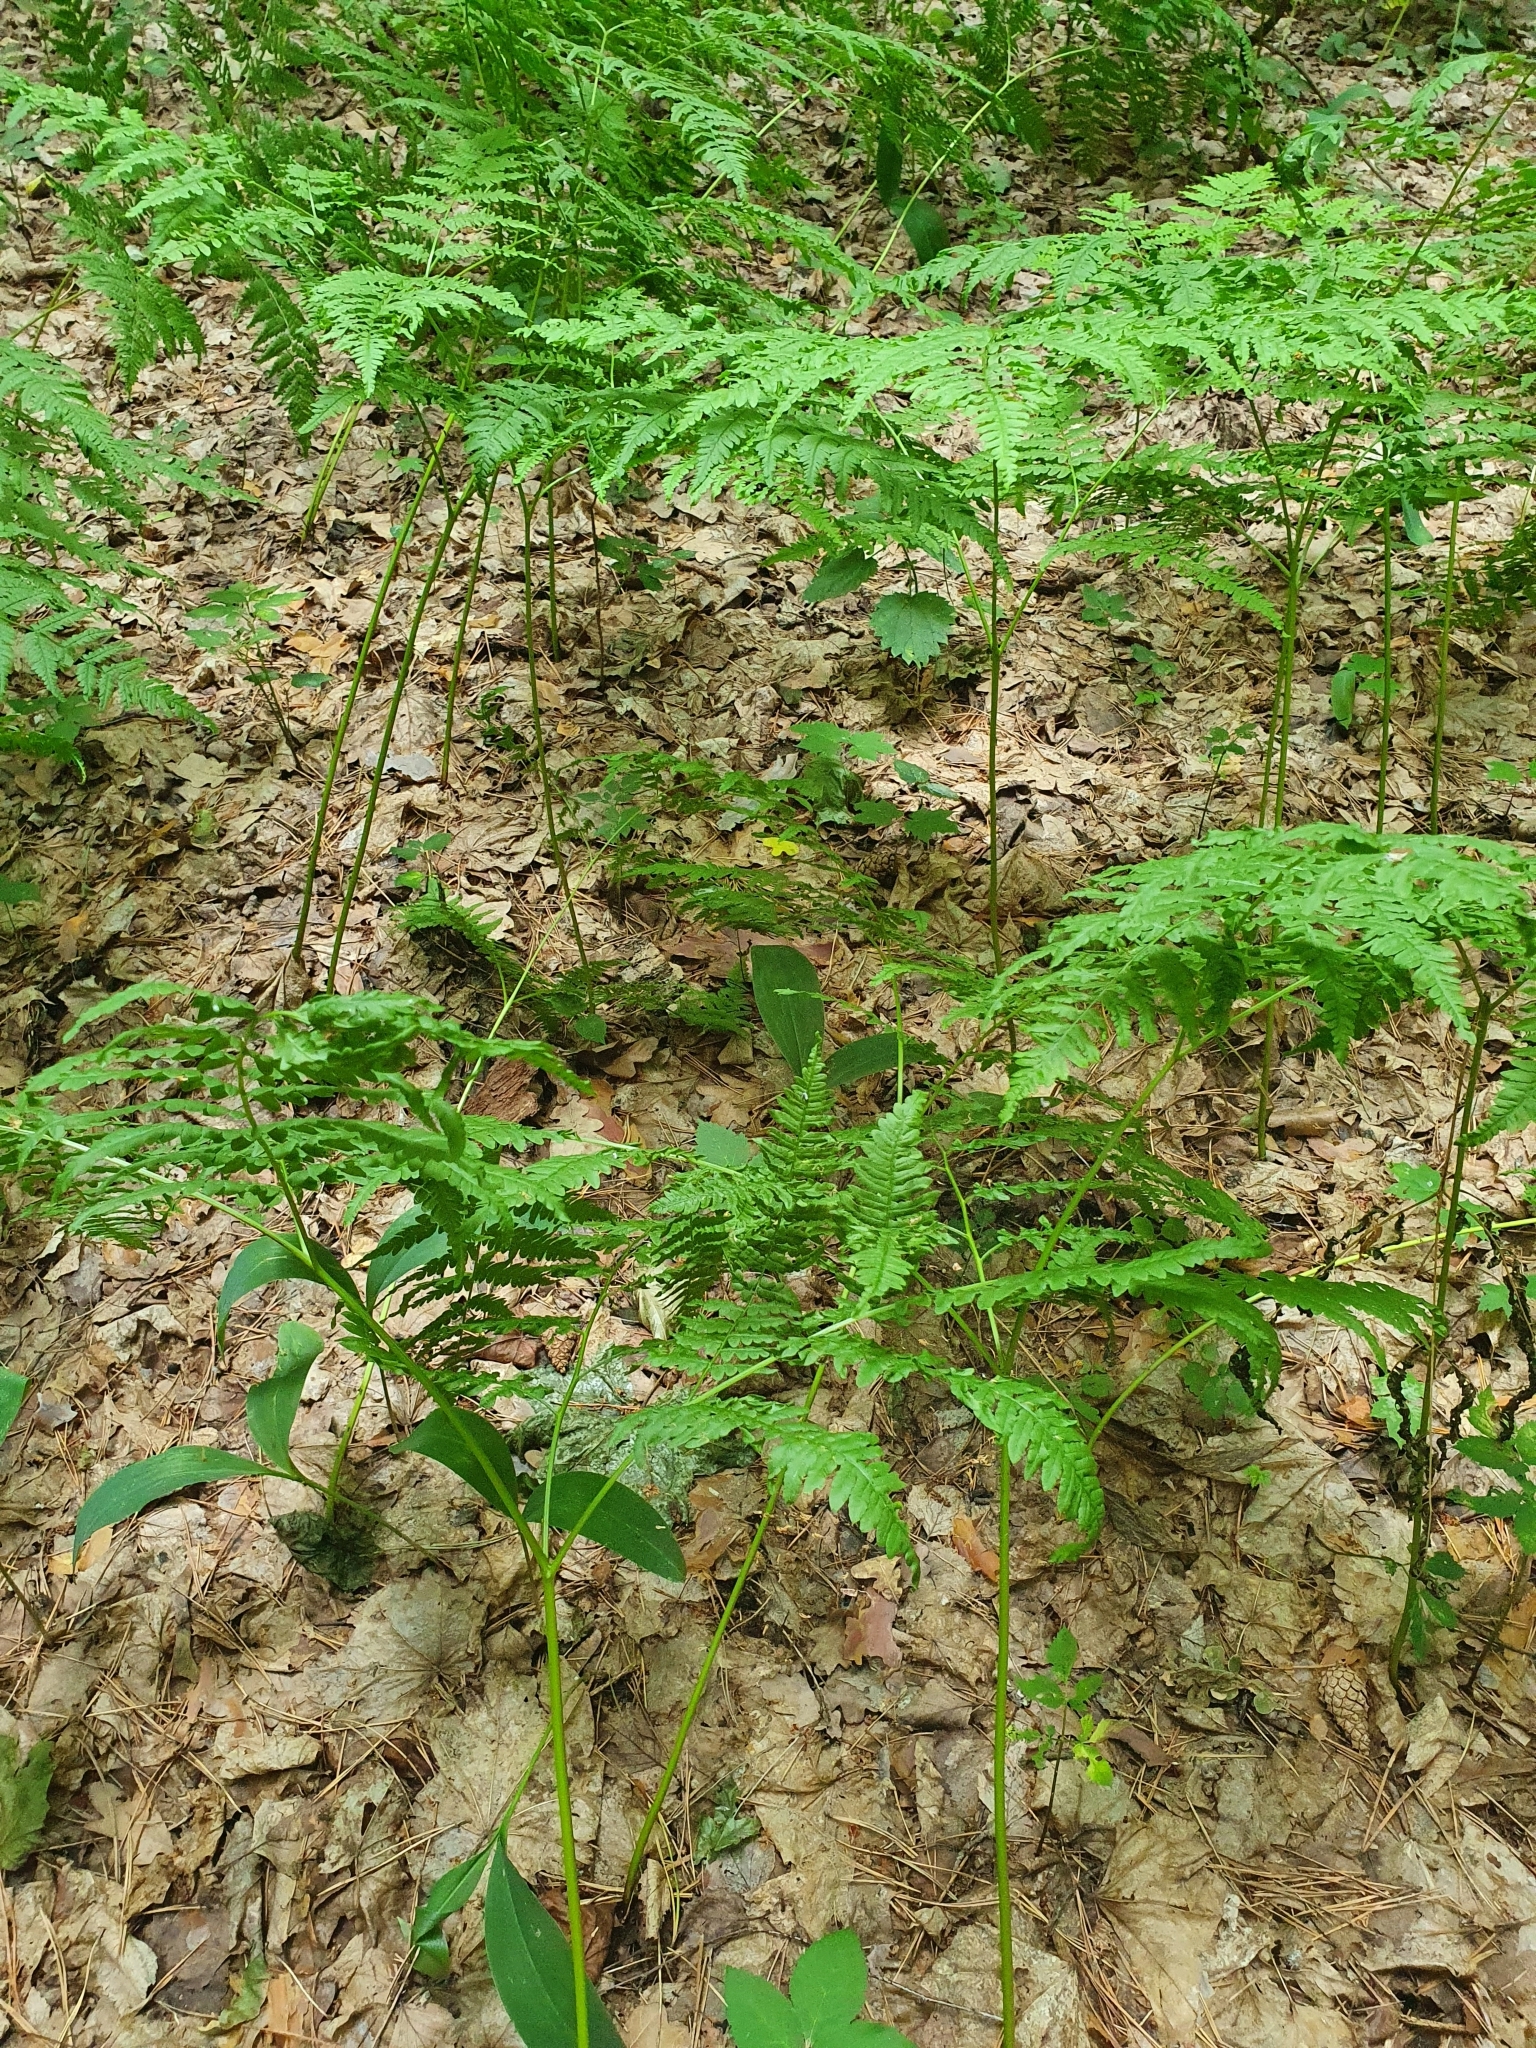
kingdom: Plantae
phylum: Tracheophyta
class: Polypodiopsida
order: Polypodiales
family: Dennstaedtiaceae
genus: Pteridium
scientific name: Pteridium aquilinum
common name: Bracken
